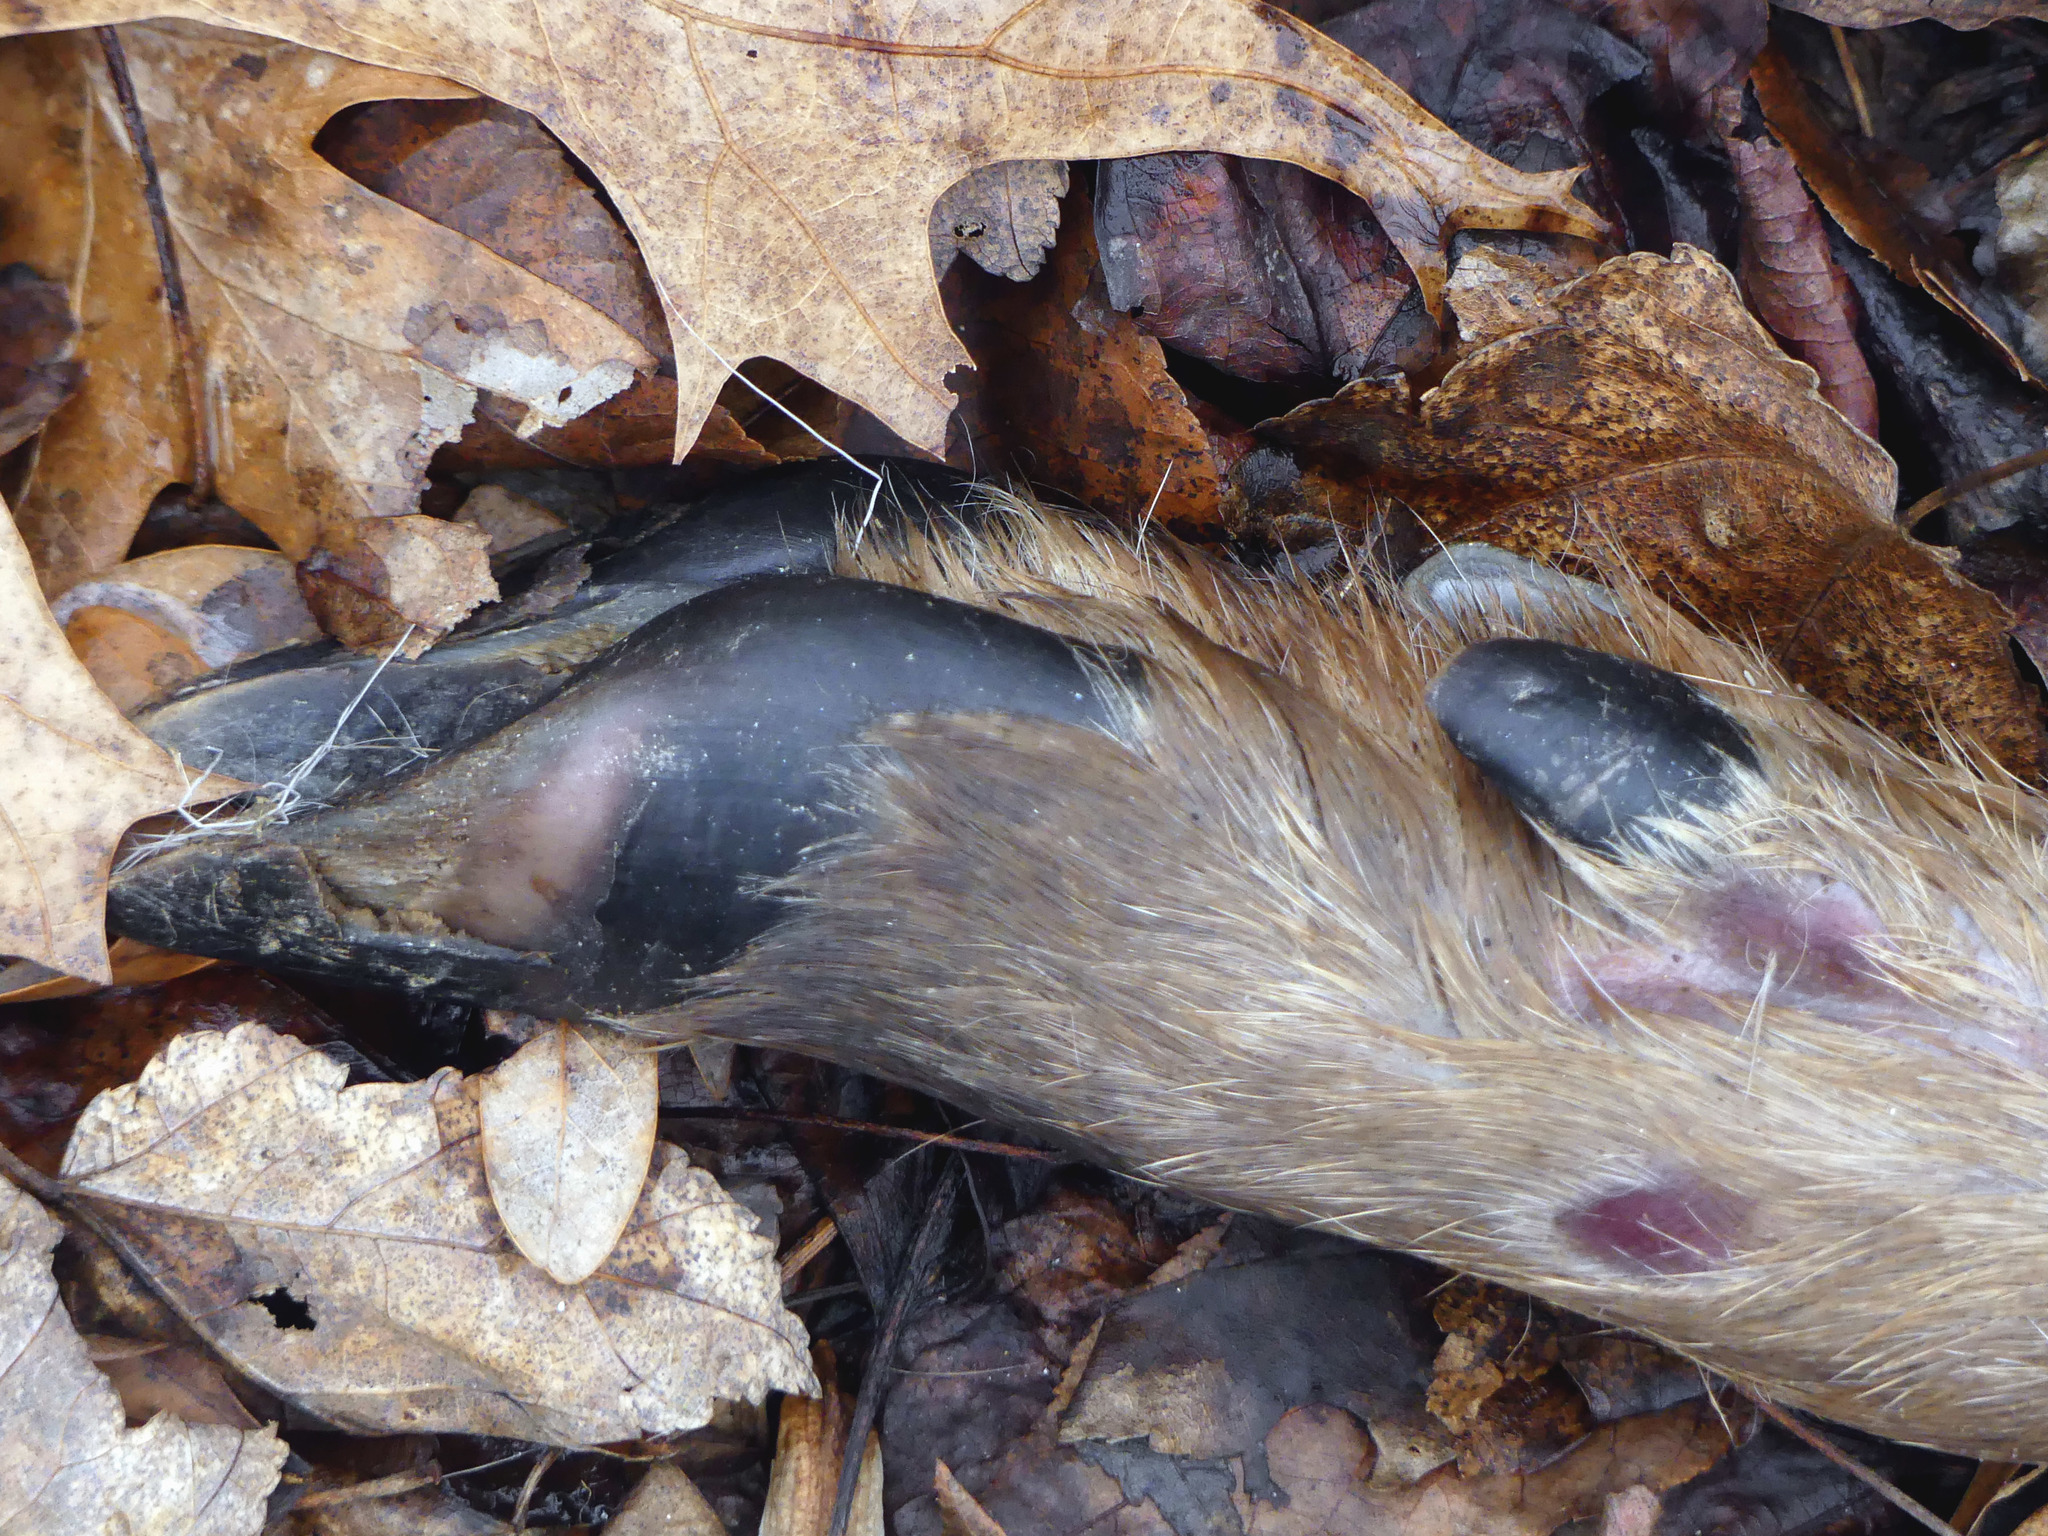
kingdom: Animalia
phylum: Chordata
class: Mammalia
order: Artiodactyla
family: Cervidae
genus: Odocoileus
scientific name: Odocoileus virginianus
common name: White-tailed deer
